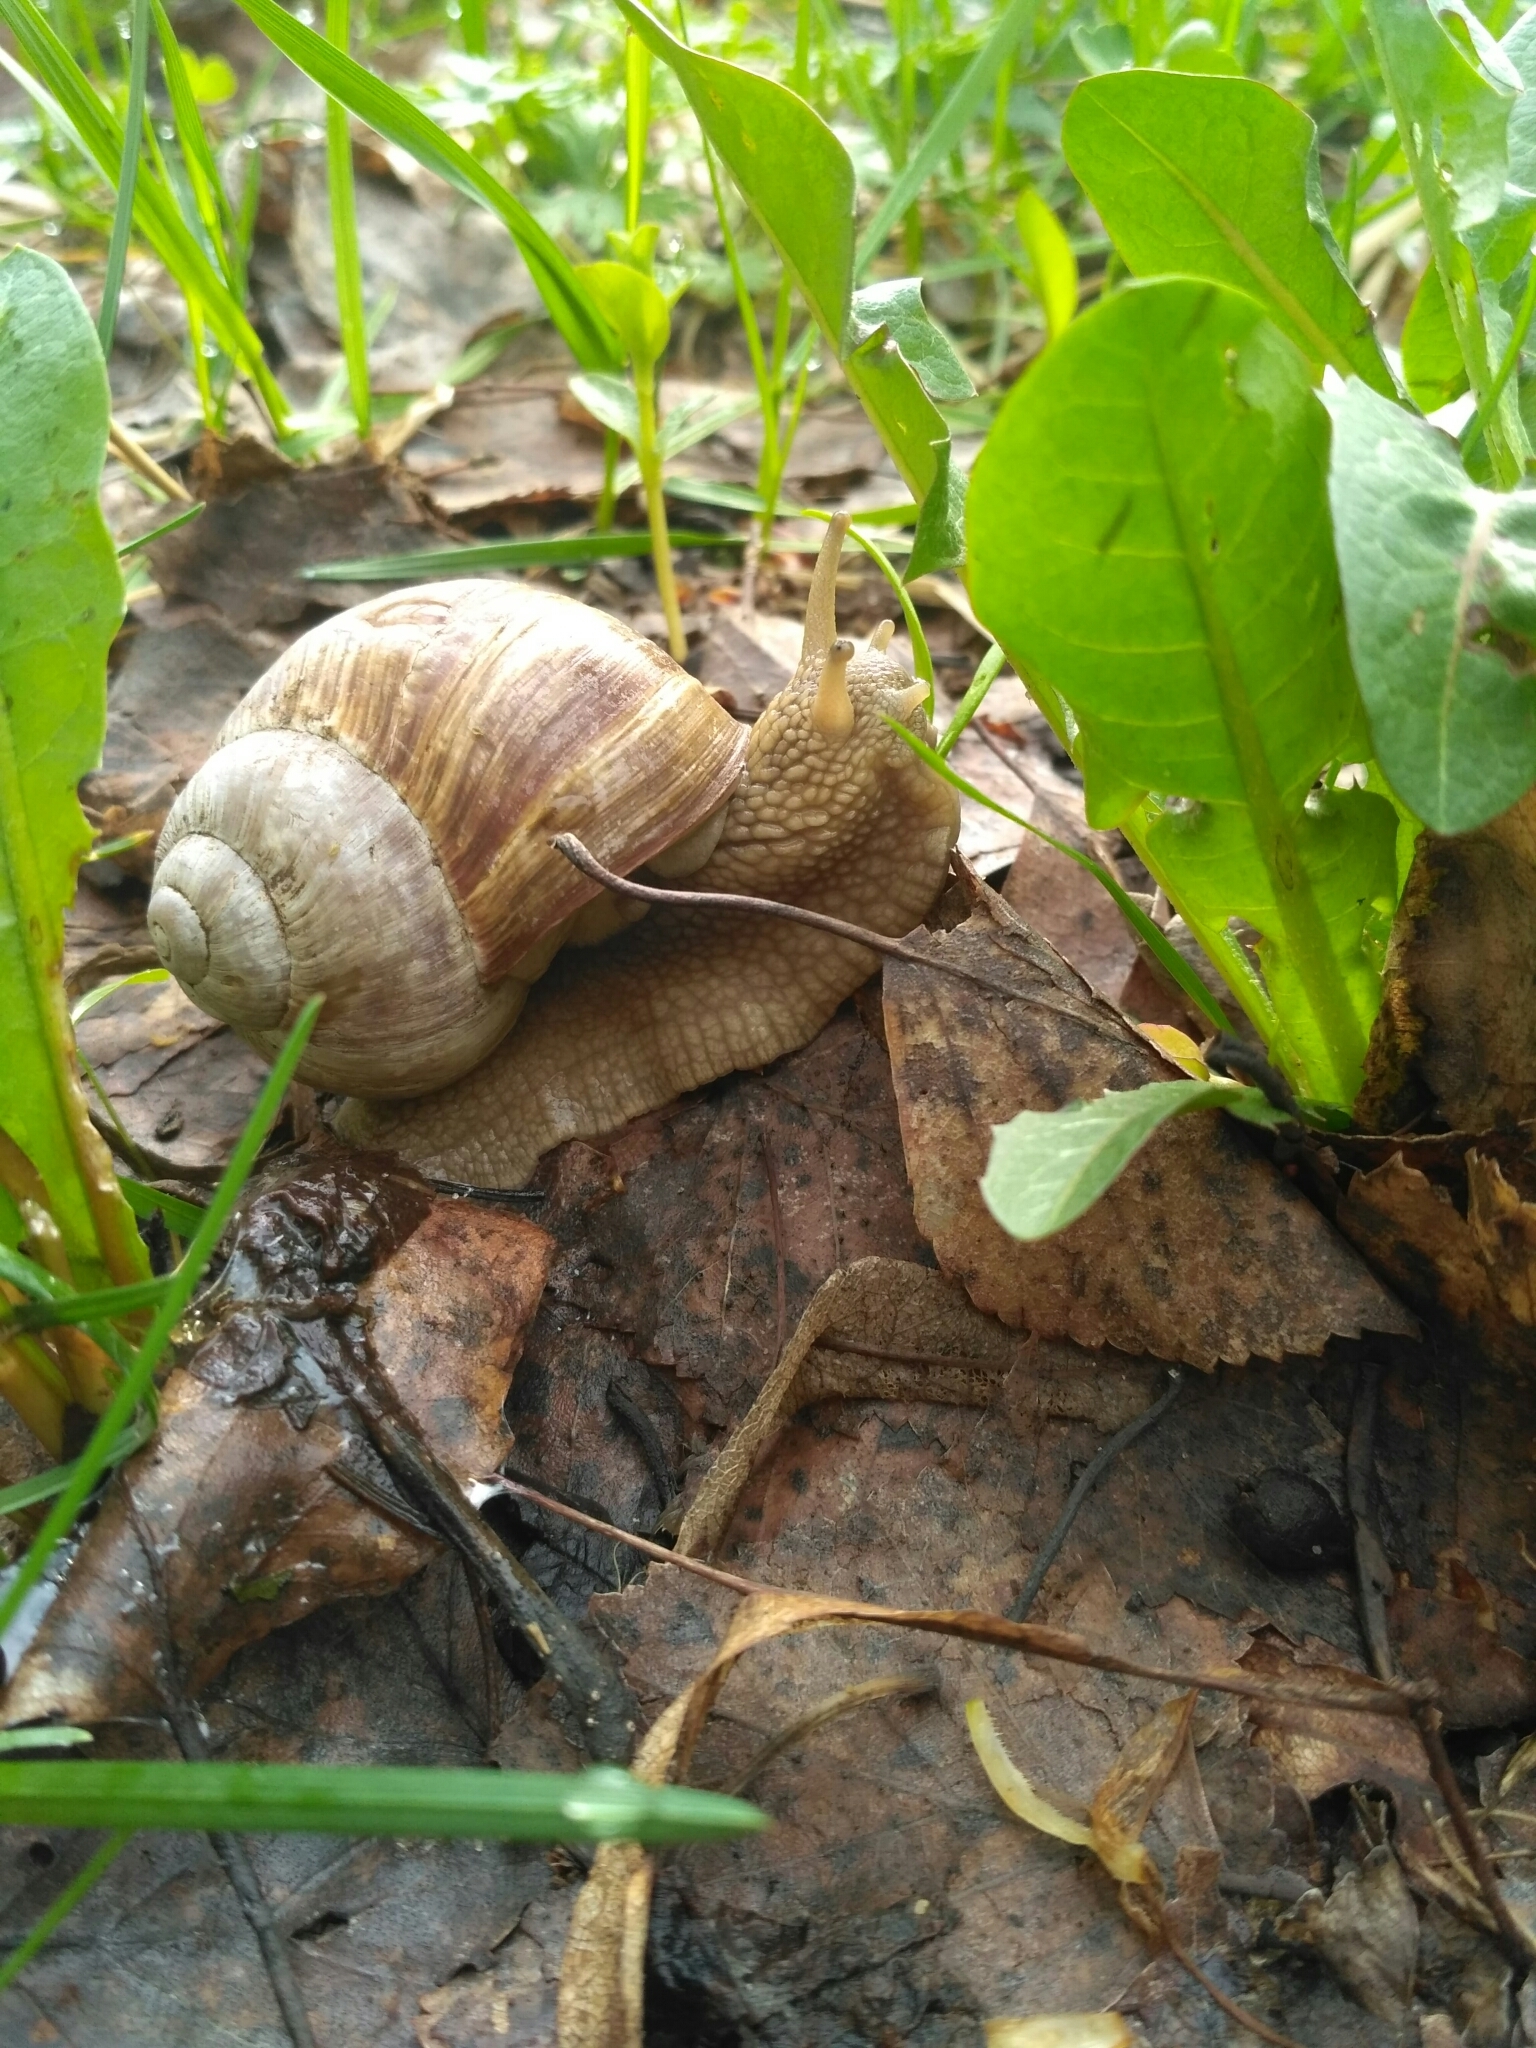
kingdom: Animalia
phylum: Mollusca
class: Gastropoda
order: Stylommatophora
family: Helicidae
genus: Helix
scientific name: Helix pomatia
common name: Roman snail
